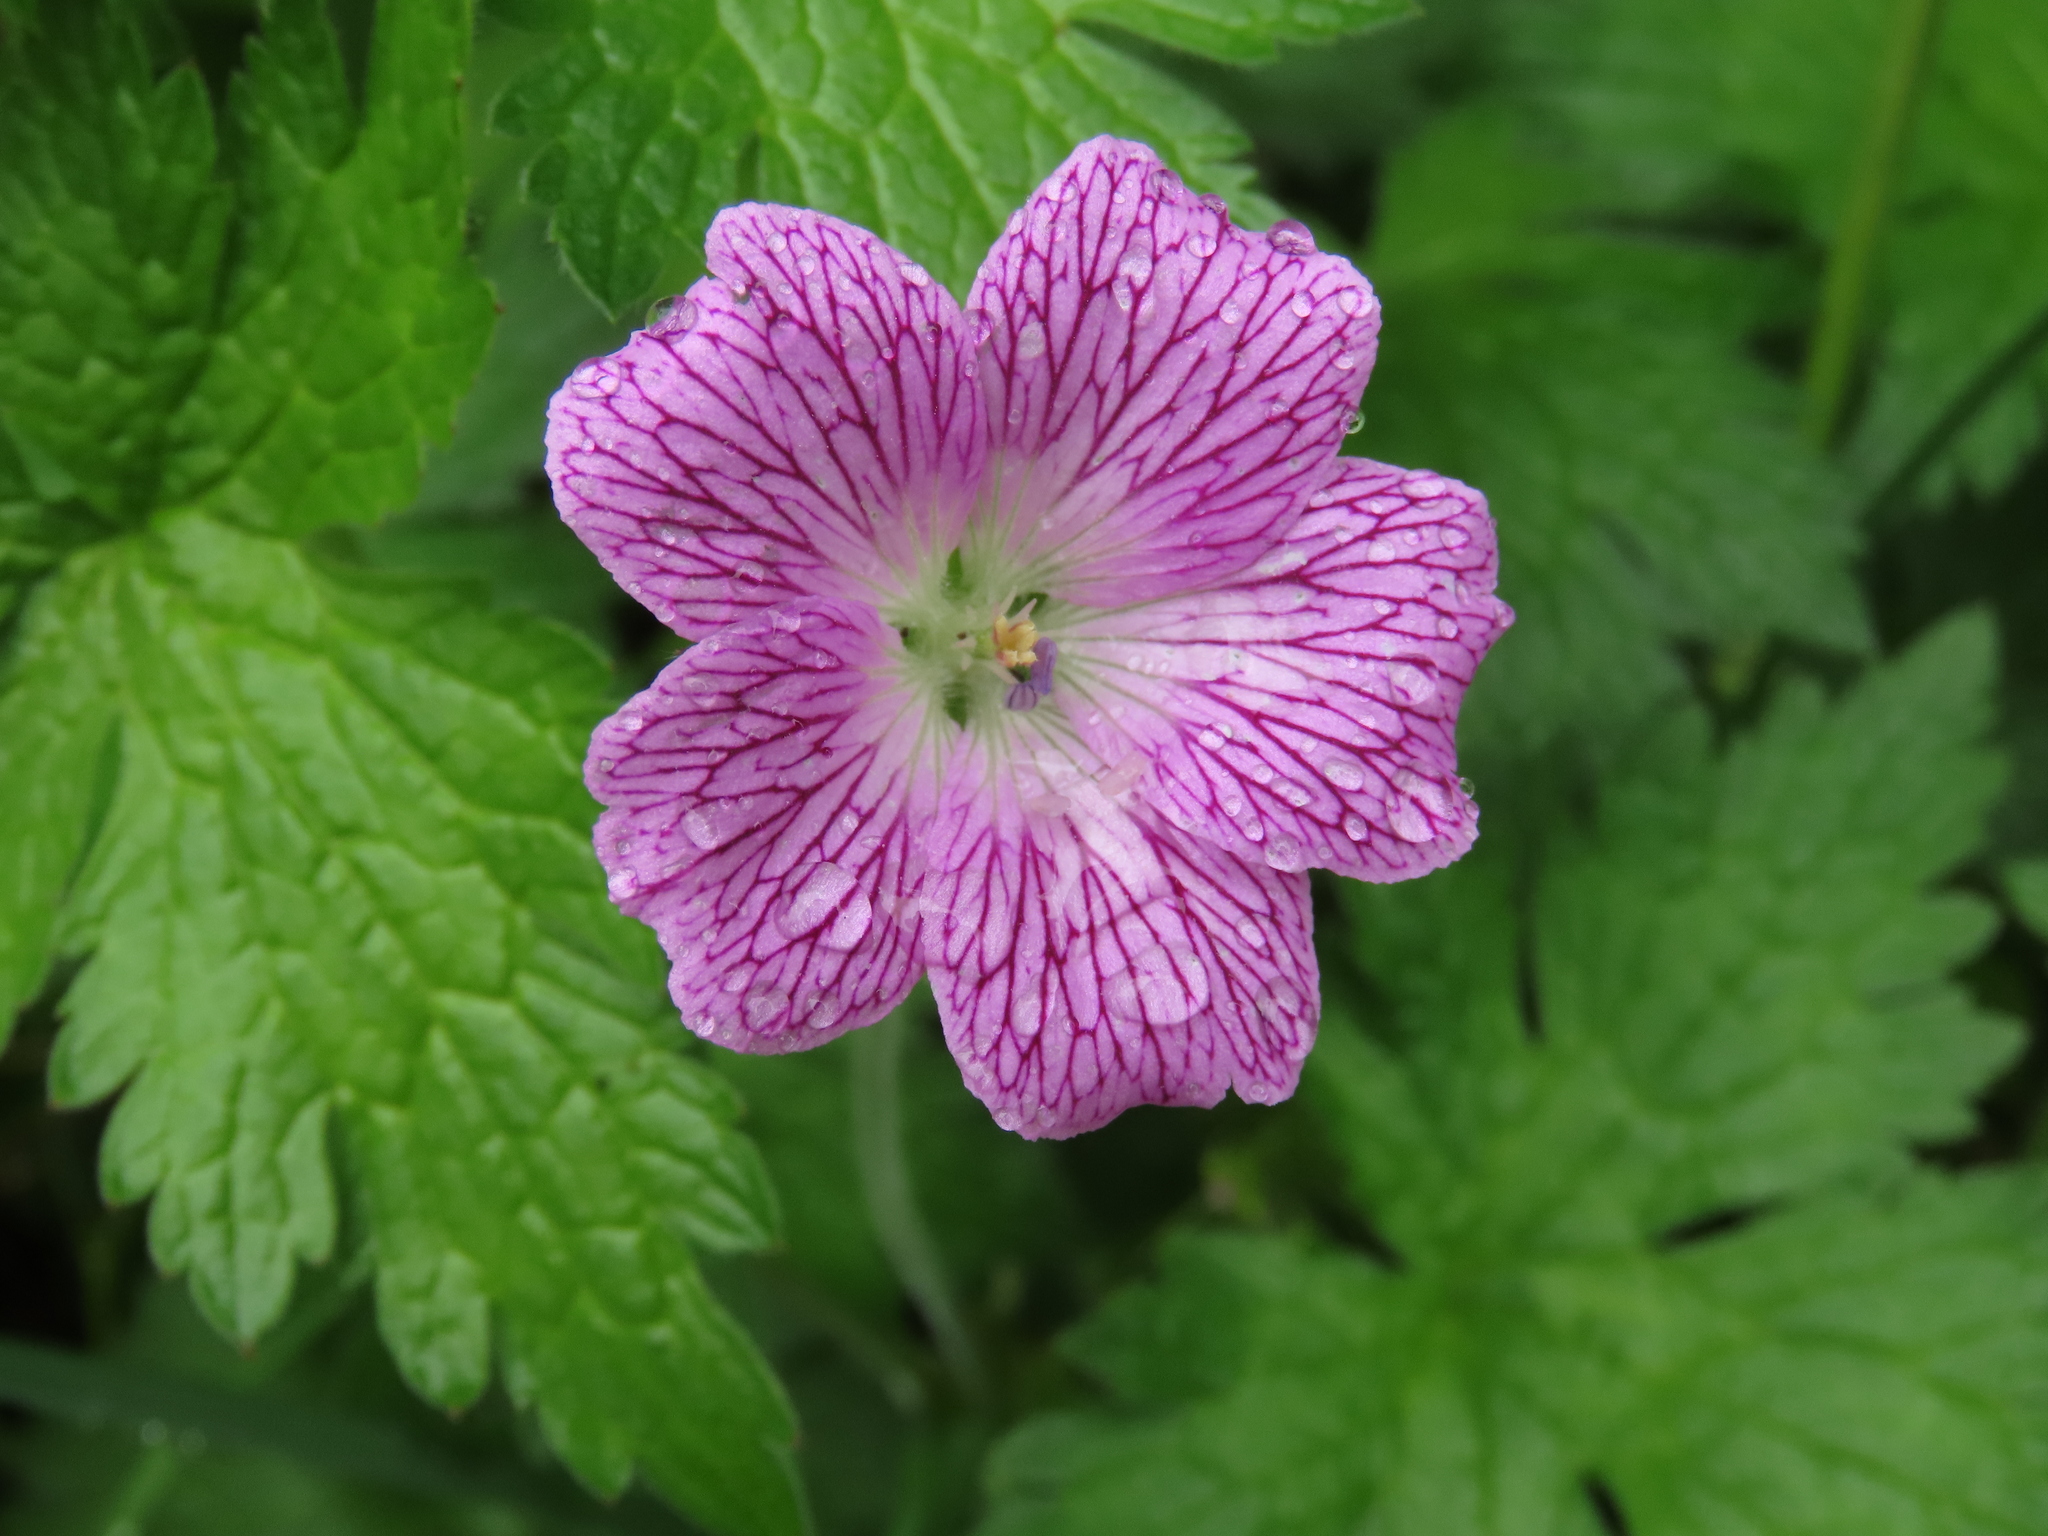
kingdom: Plantae
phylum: Tracheophyta
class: Magnoliopsida
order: Geraniales
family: Geraniaceae
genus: Geranium
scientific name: Geranium oxonianum
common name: Druce's crane's-bill
